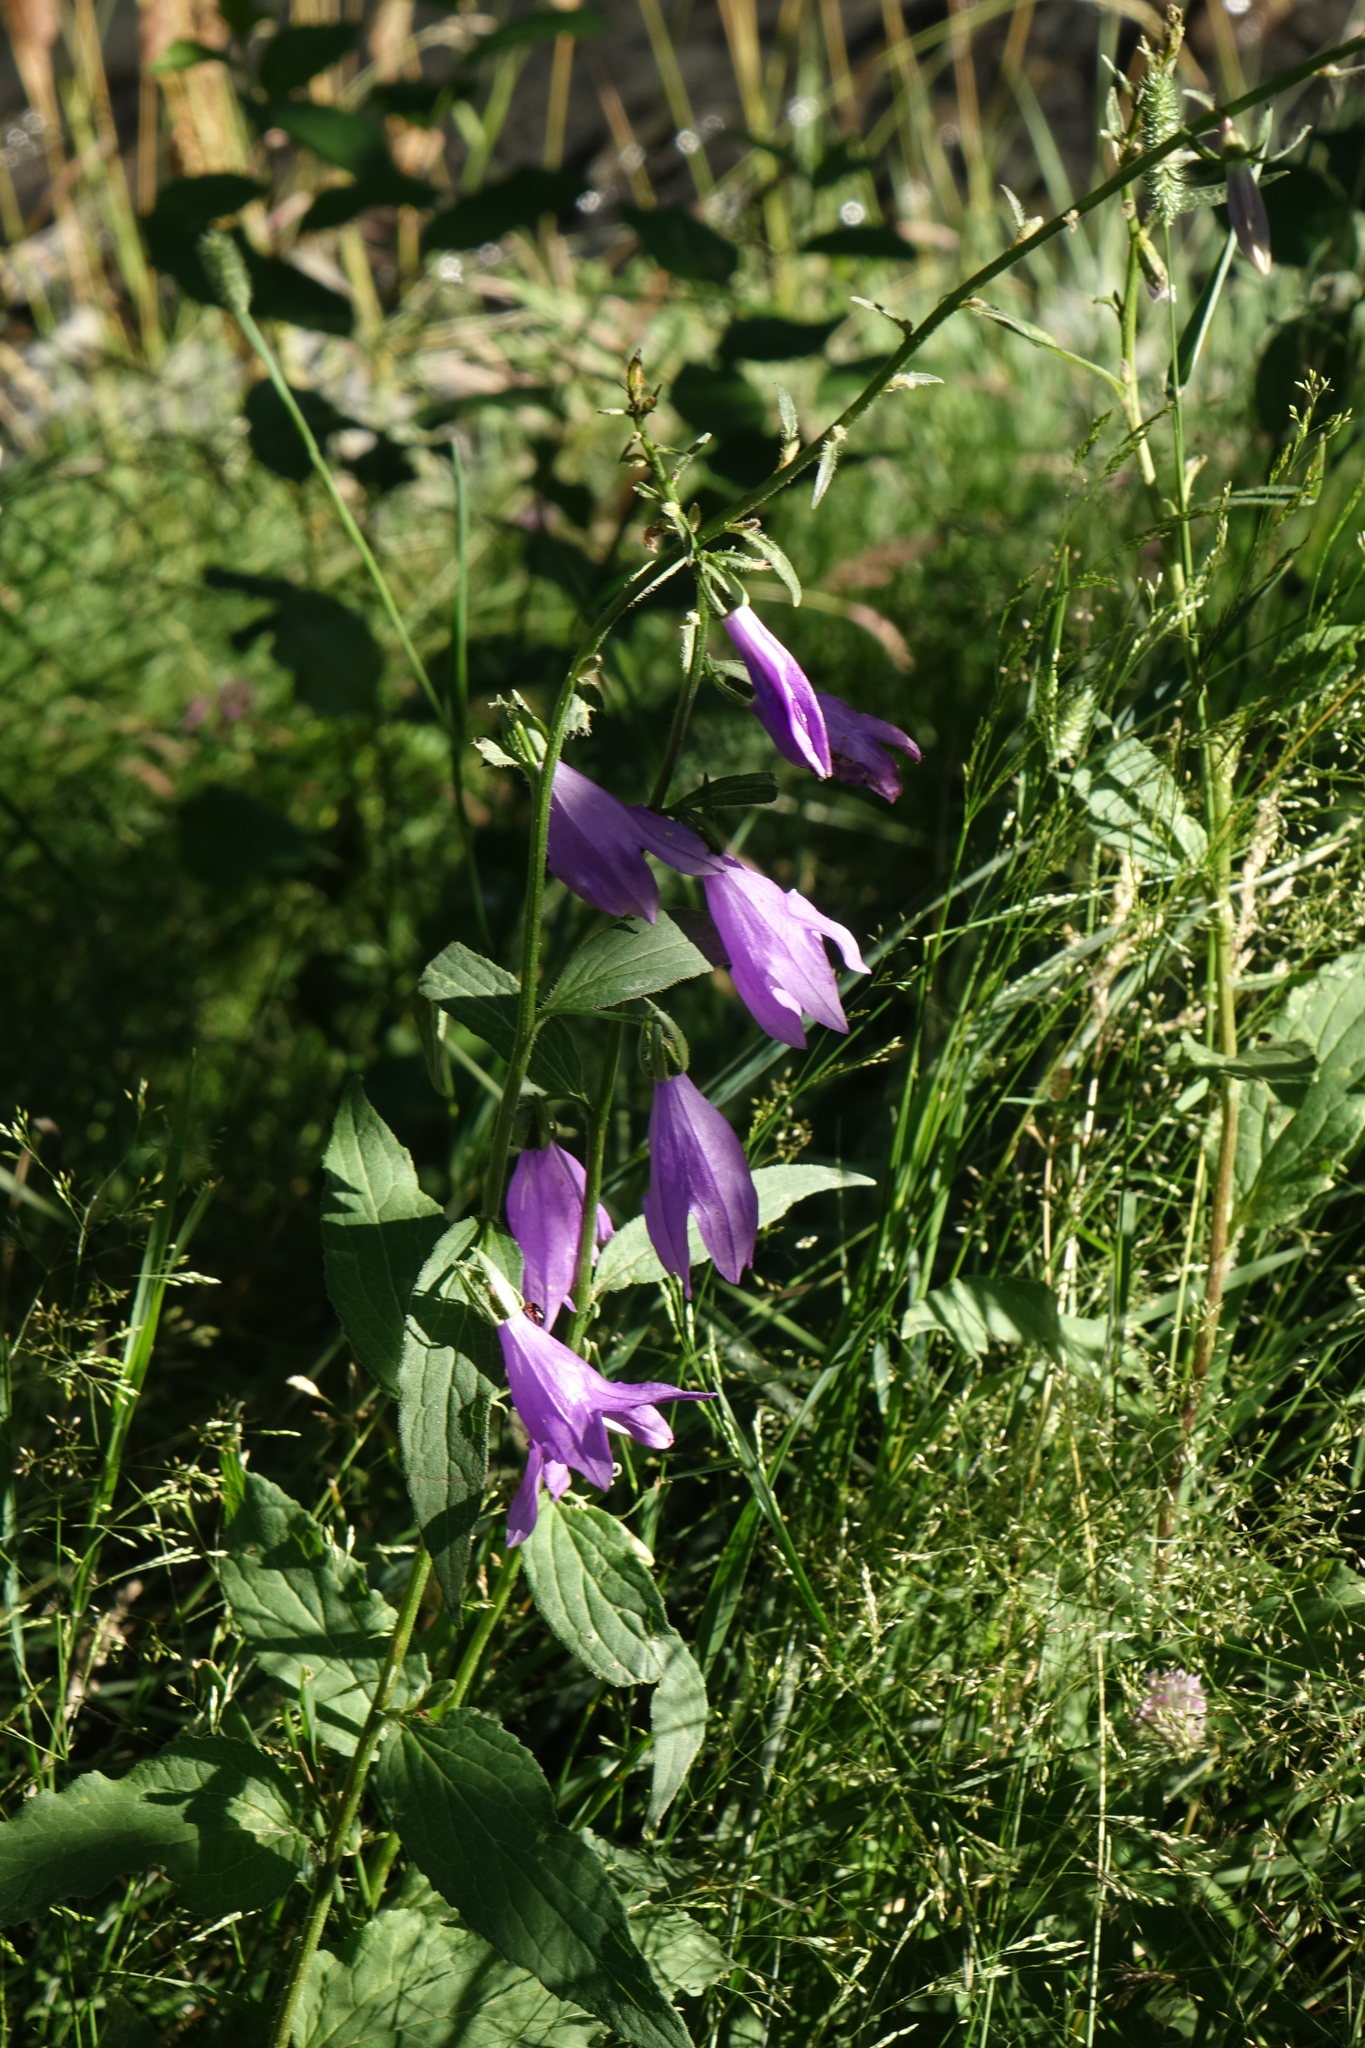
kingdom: Plantae
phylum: Tracheophyta
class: Magnoliopsida
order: Asterales
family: Campanulaceae
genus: Campanula
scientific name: Campanula rapunculoides
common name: Creeping bellflower
